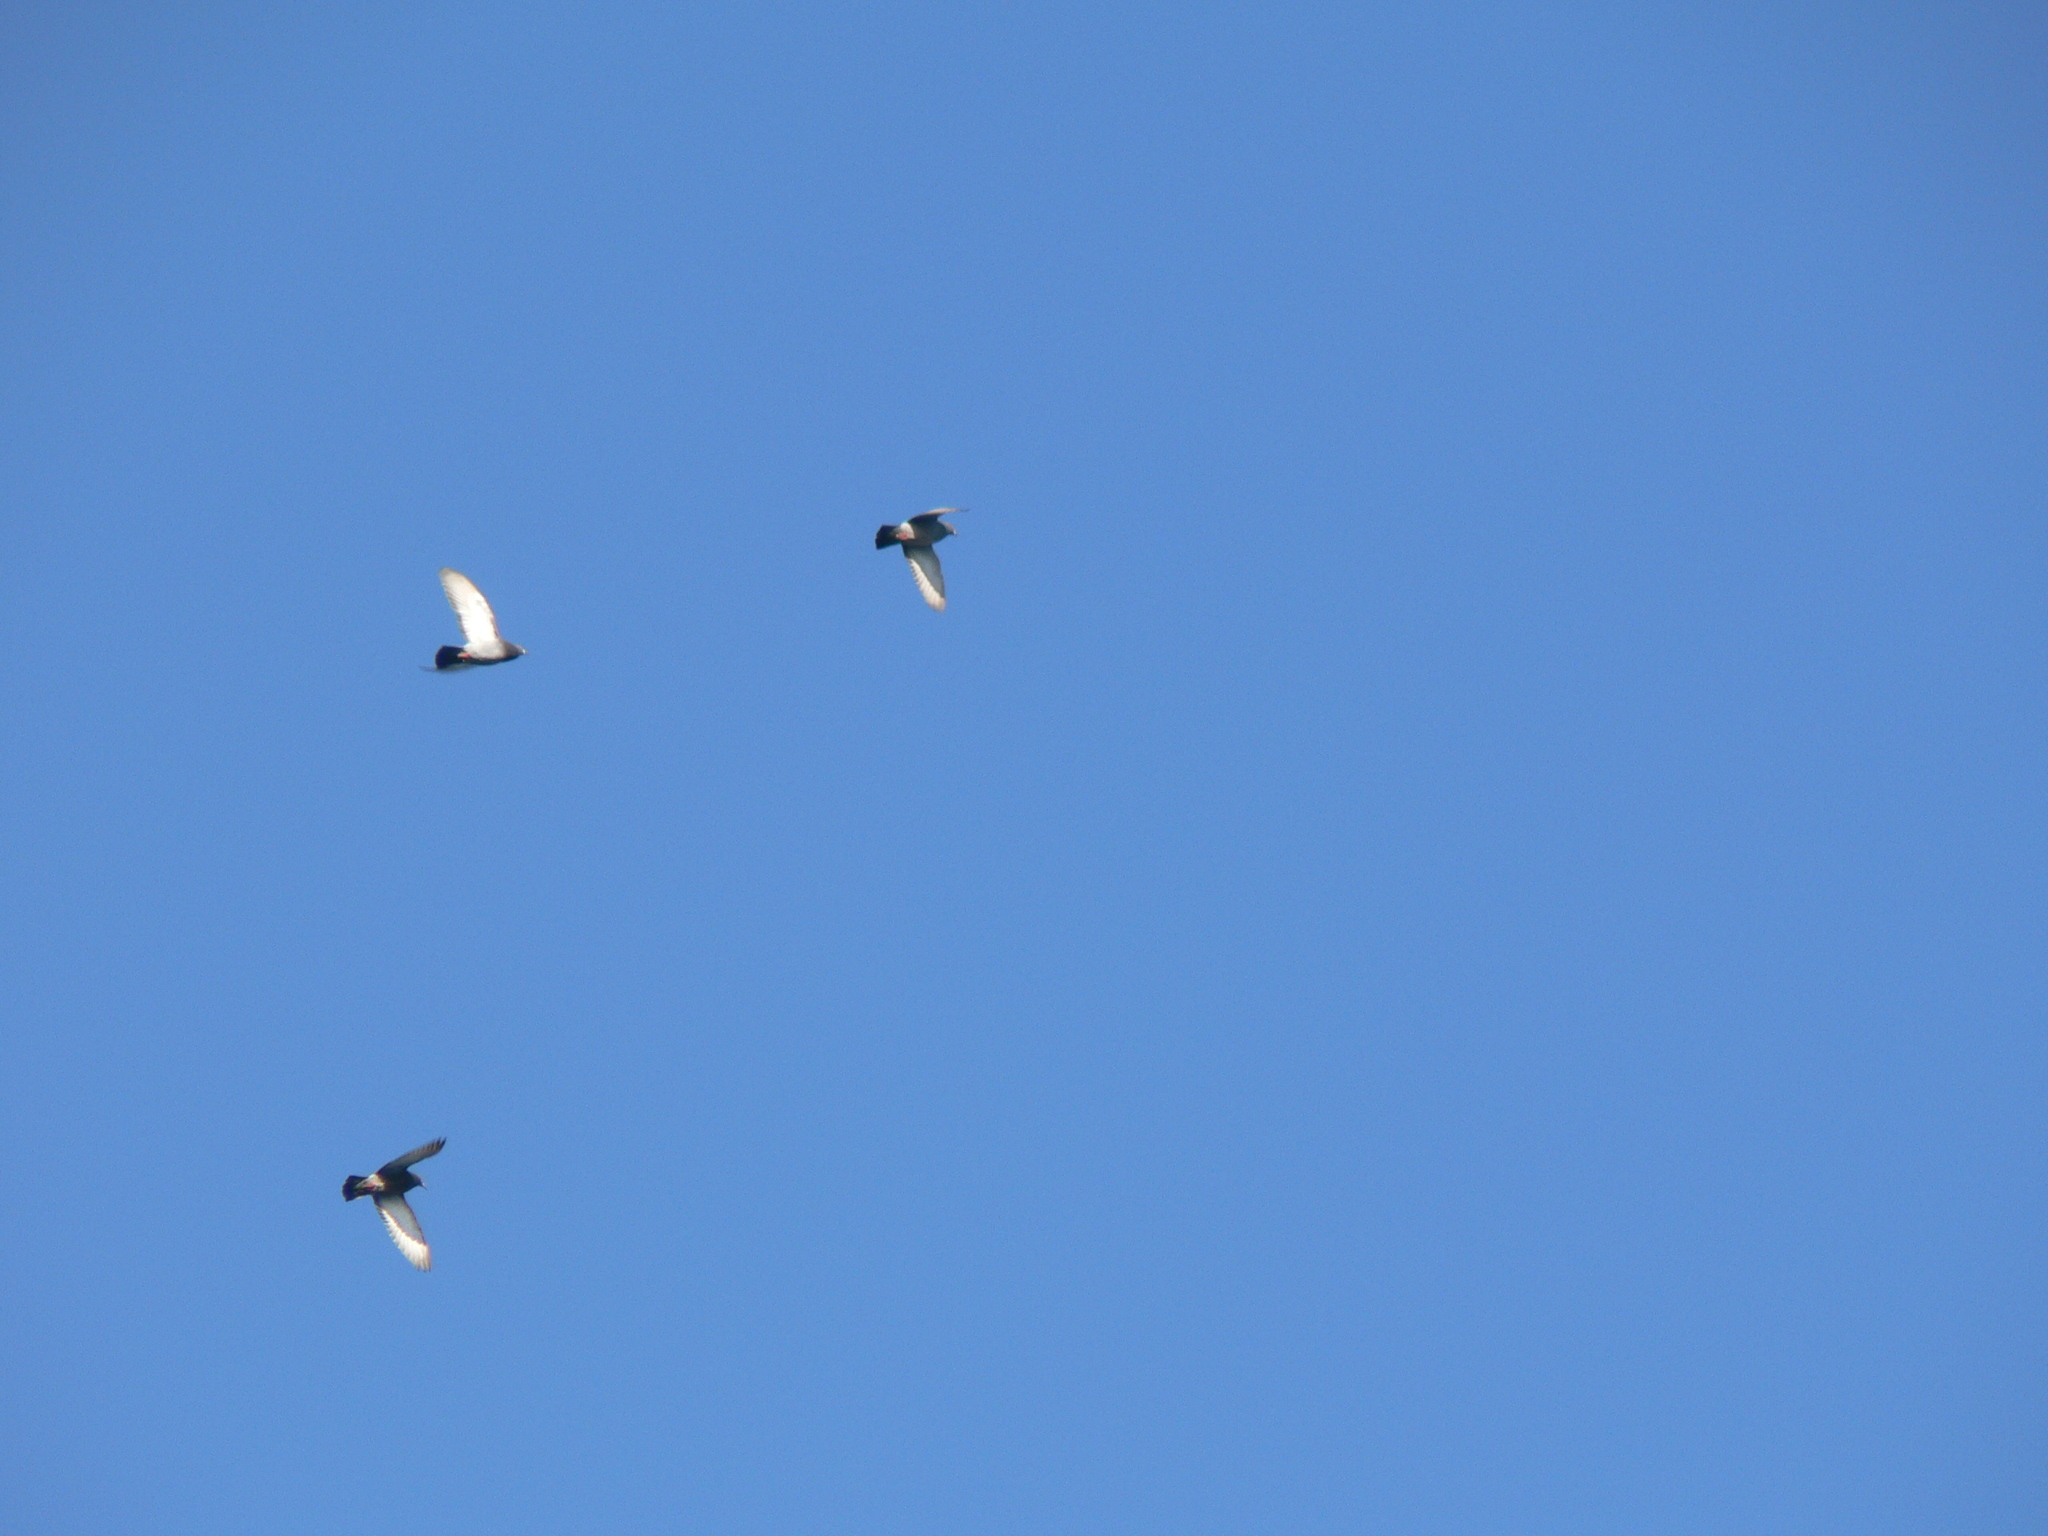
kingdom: Animalia
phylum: Chordata
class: Aves
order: Columbiformes
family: Columbidae
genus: Columba
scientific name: Columba livia
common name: Rock pigeon
